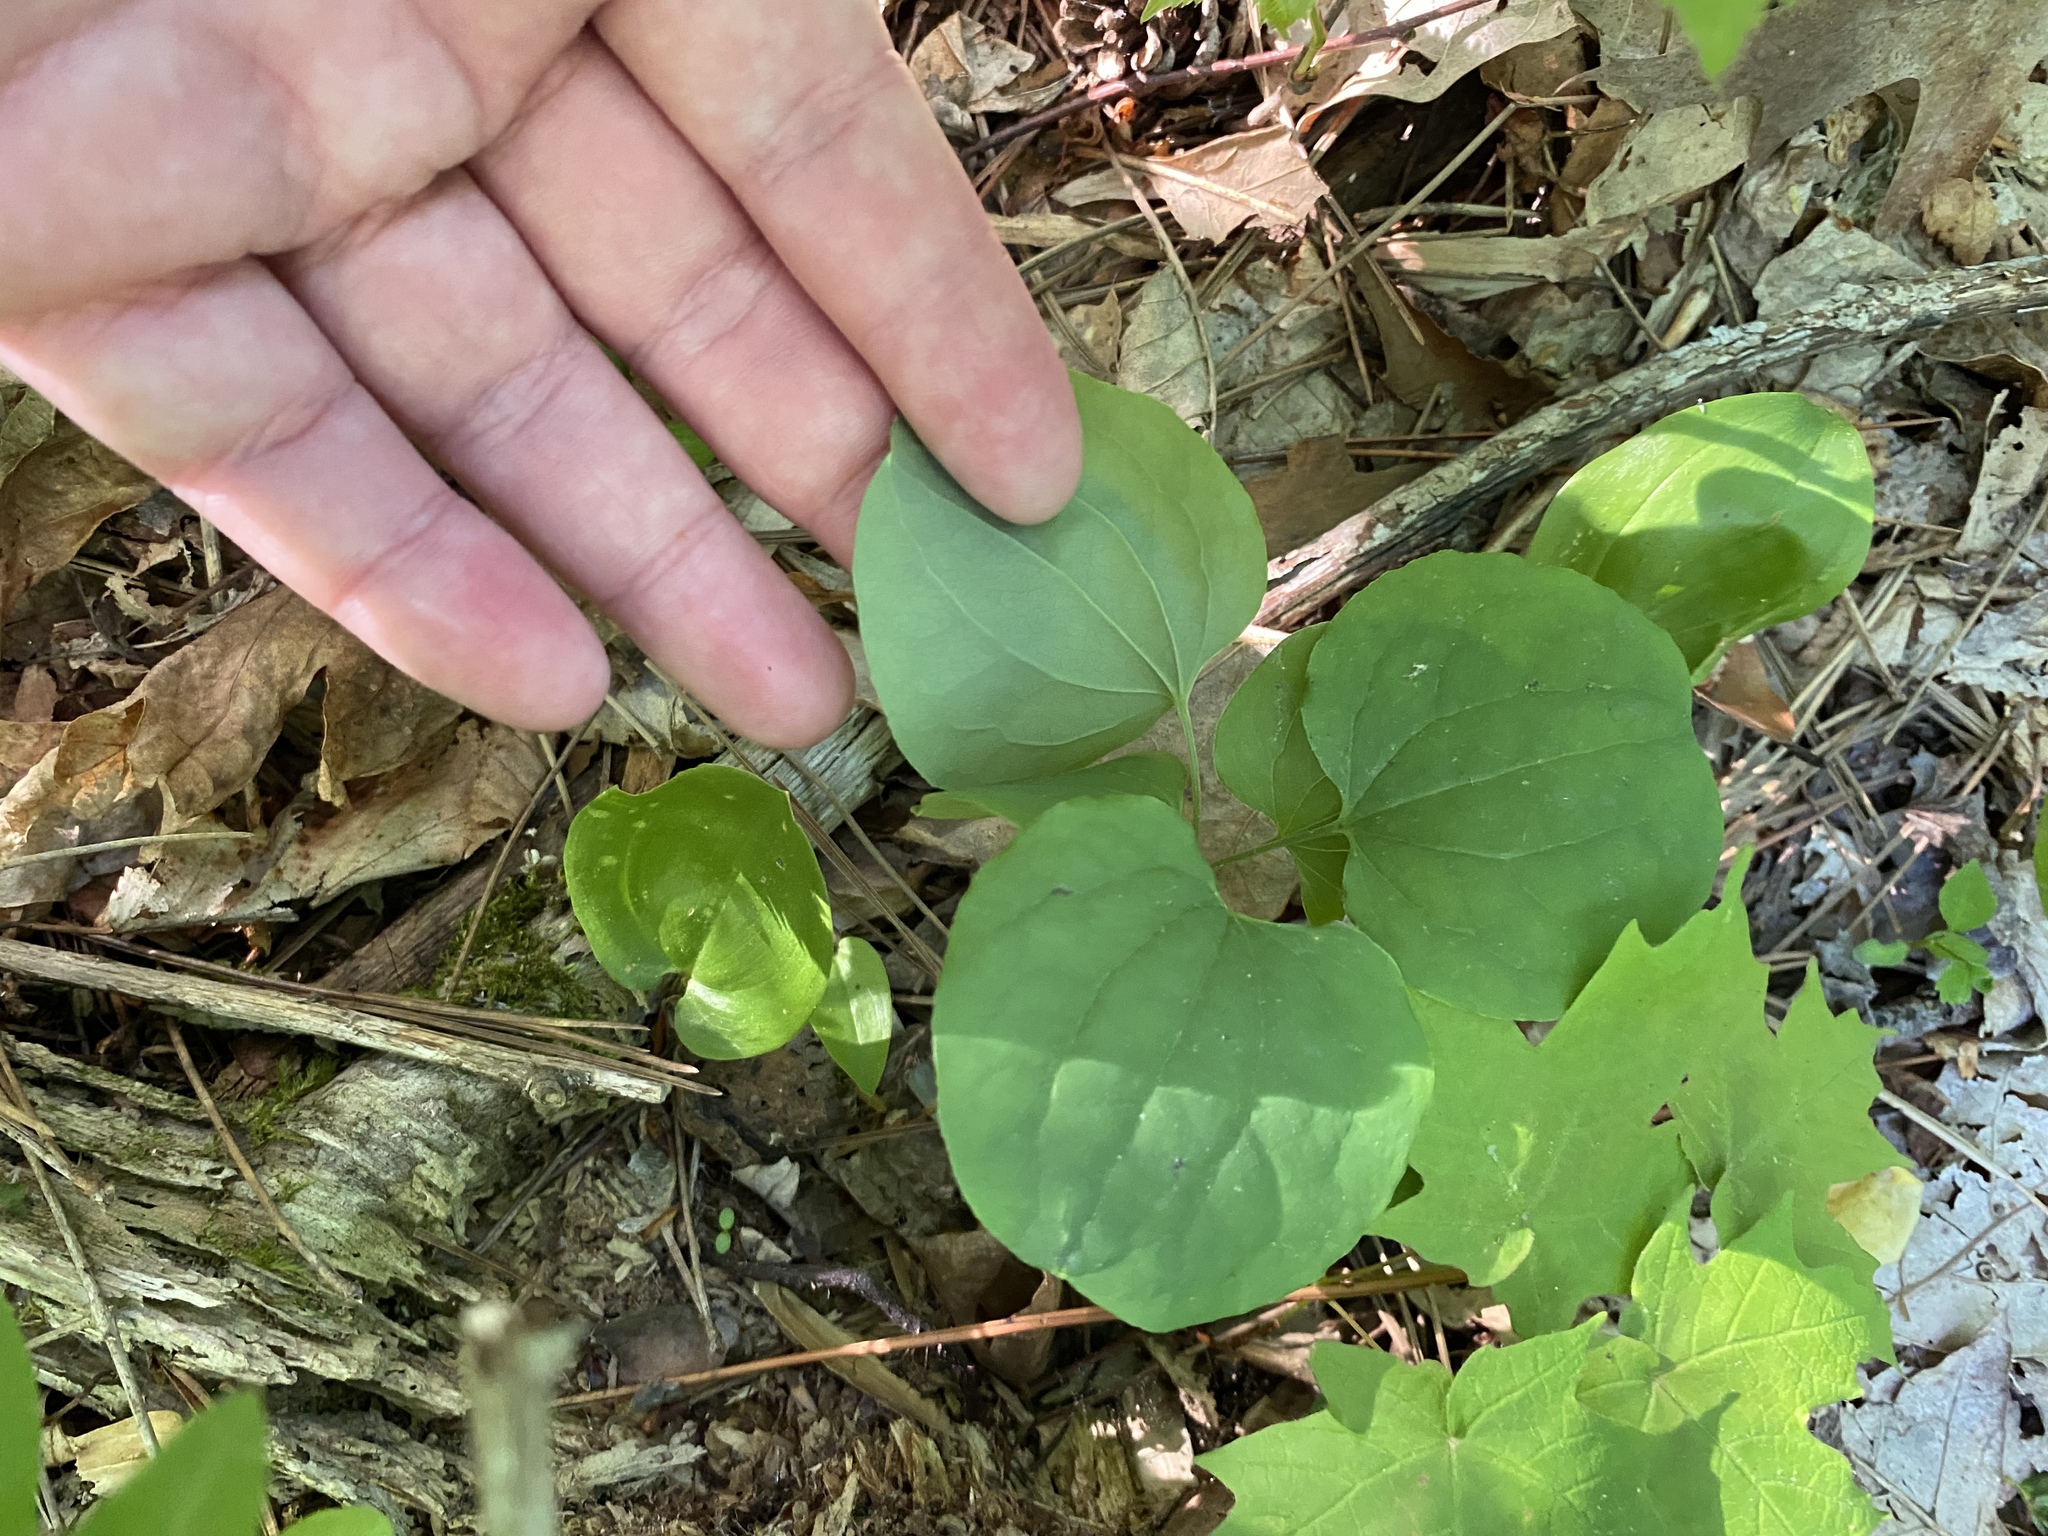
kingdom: Plantae
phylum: Tracheophyta
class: Liliopsida
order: Liliales
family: Smilacaceae
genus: Smilax
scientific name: Smilax herbacea
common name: Jacob's-ladder
